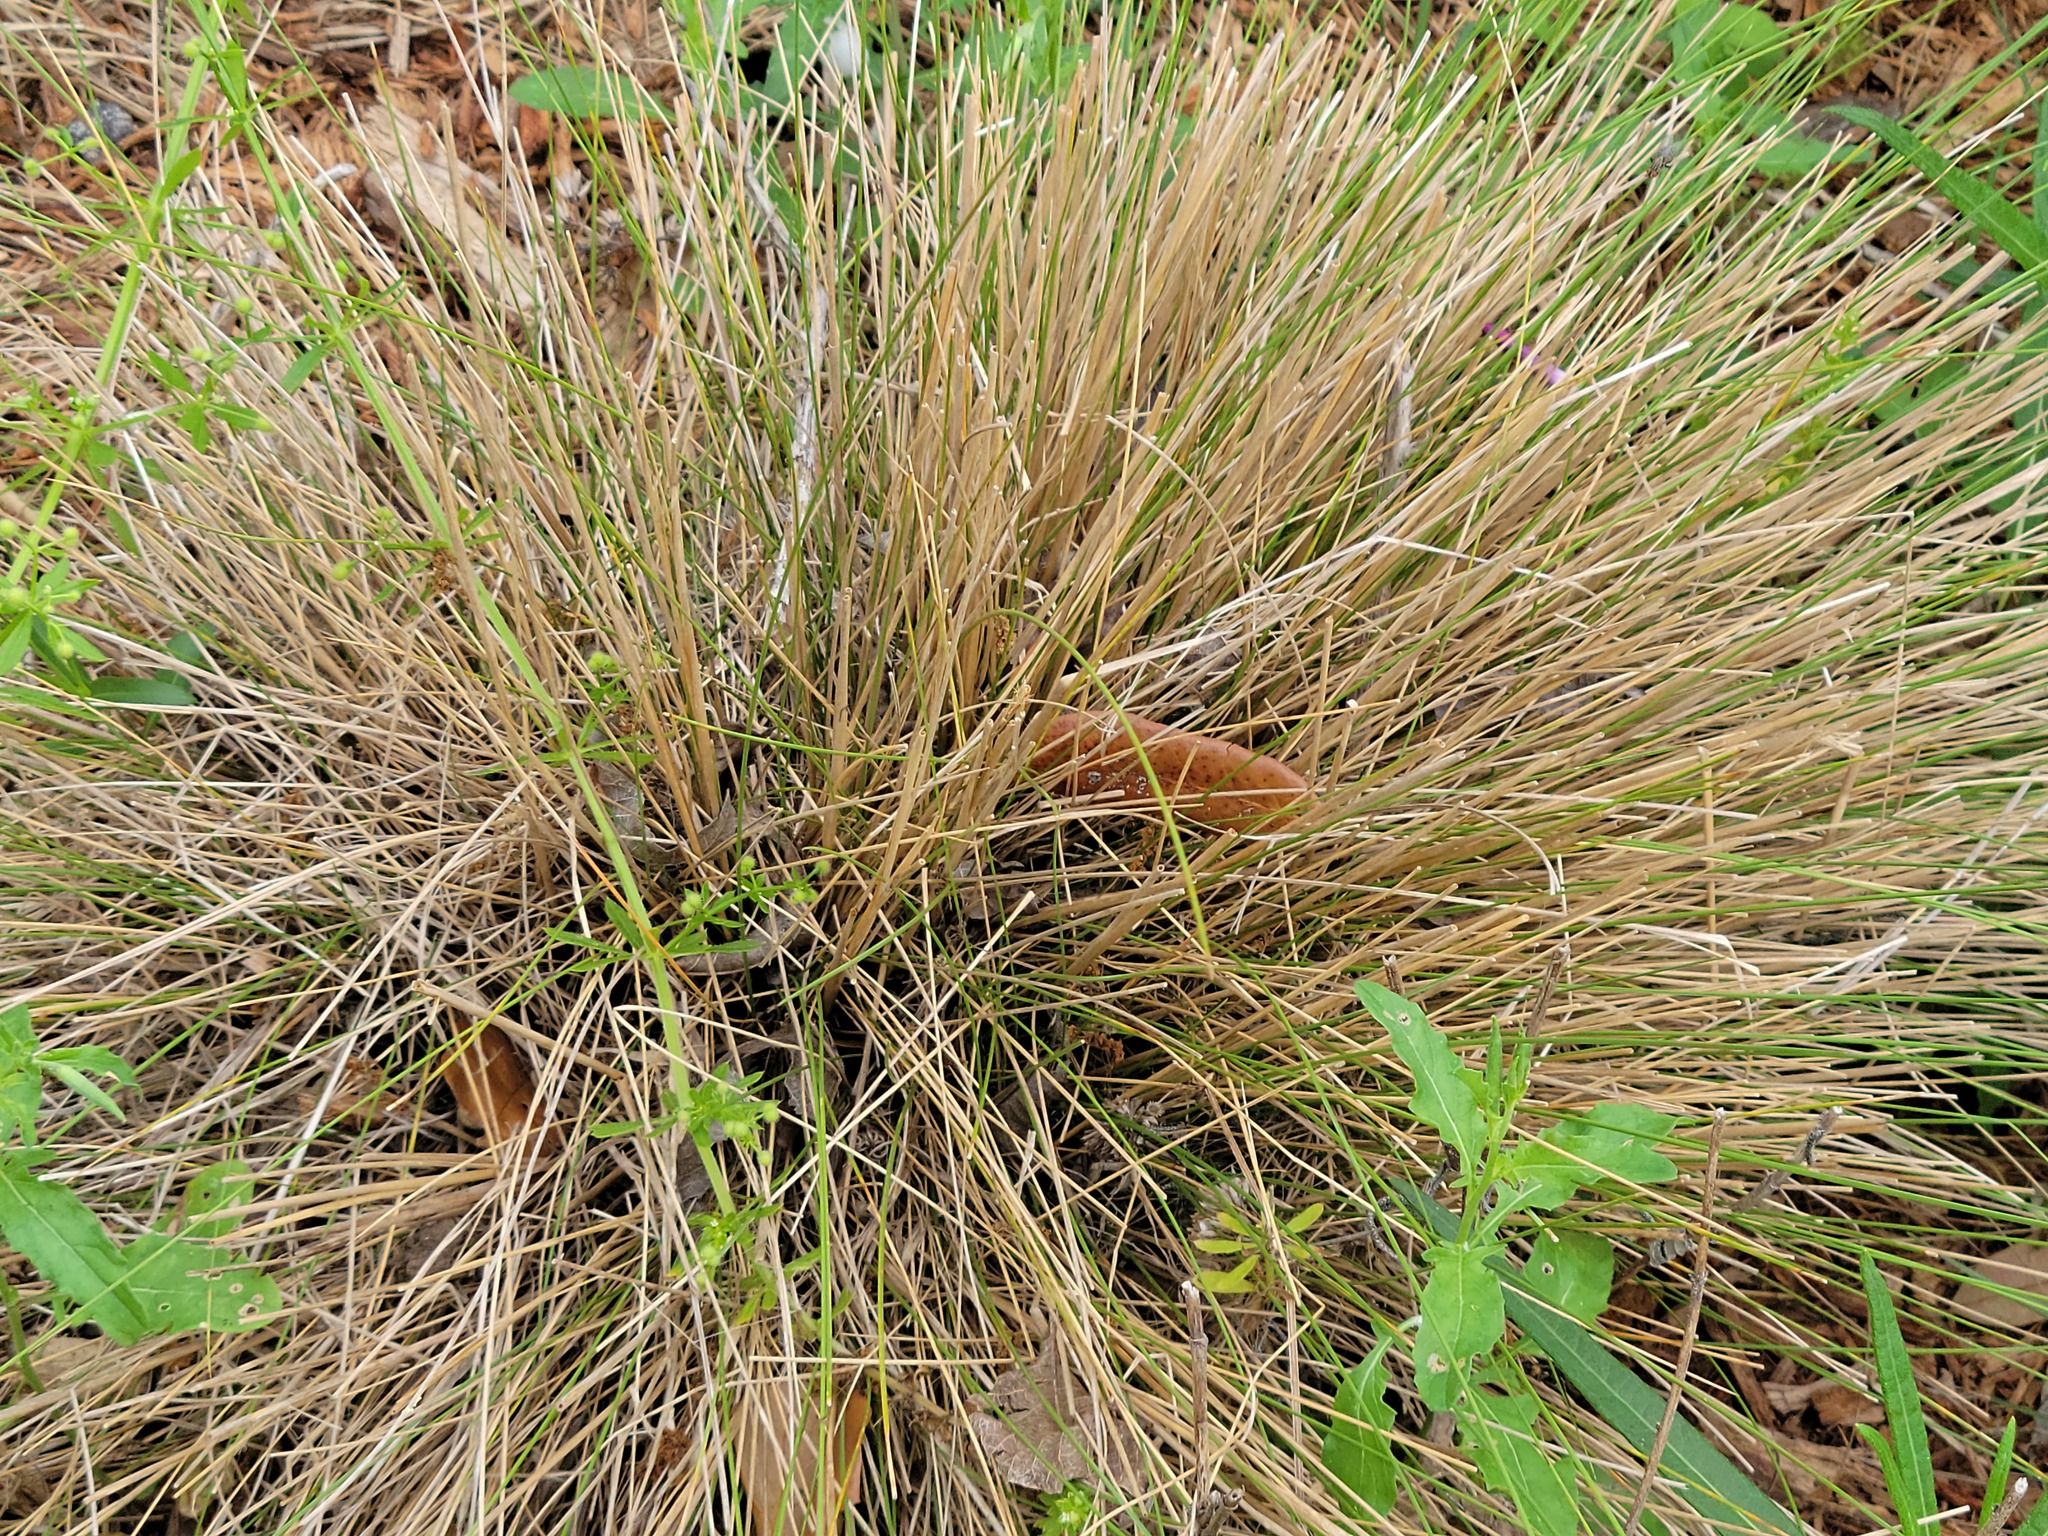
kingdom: Plantae
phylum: Tracheophyta
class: Liliopsida
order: Poales
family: Poaceae
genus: Muhlenbergia
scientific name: Muhlenbergia capillaris
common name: Purple grass
